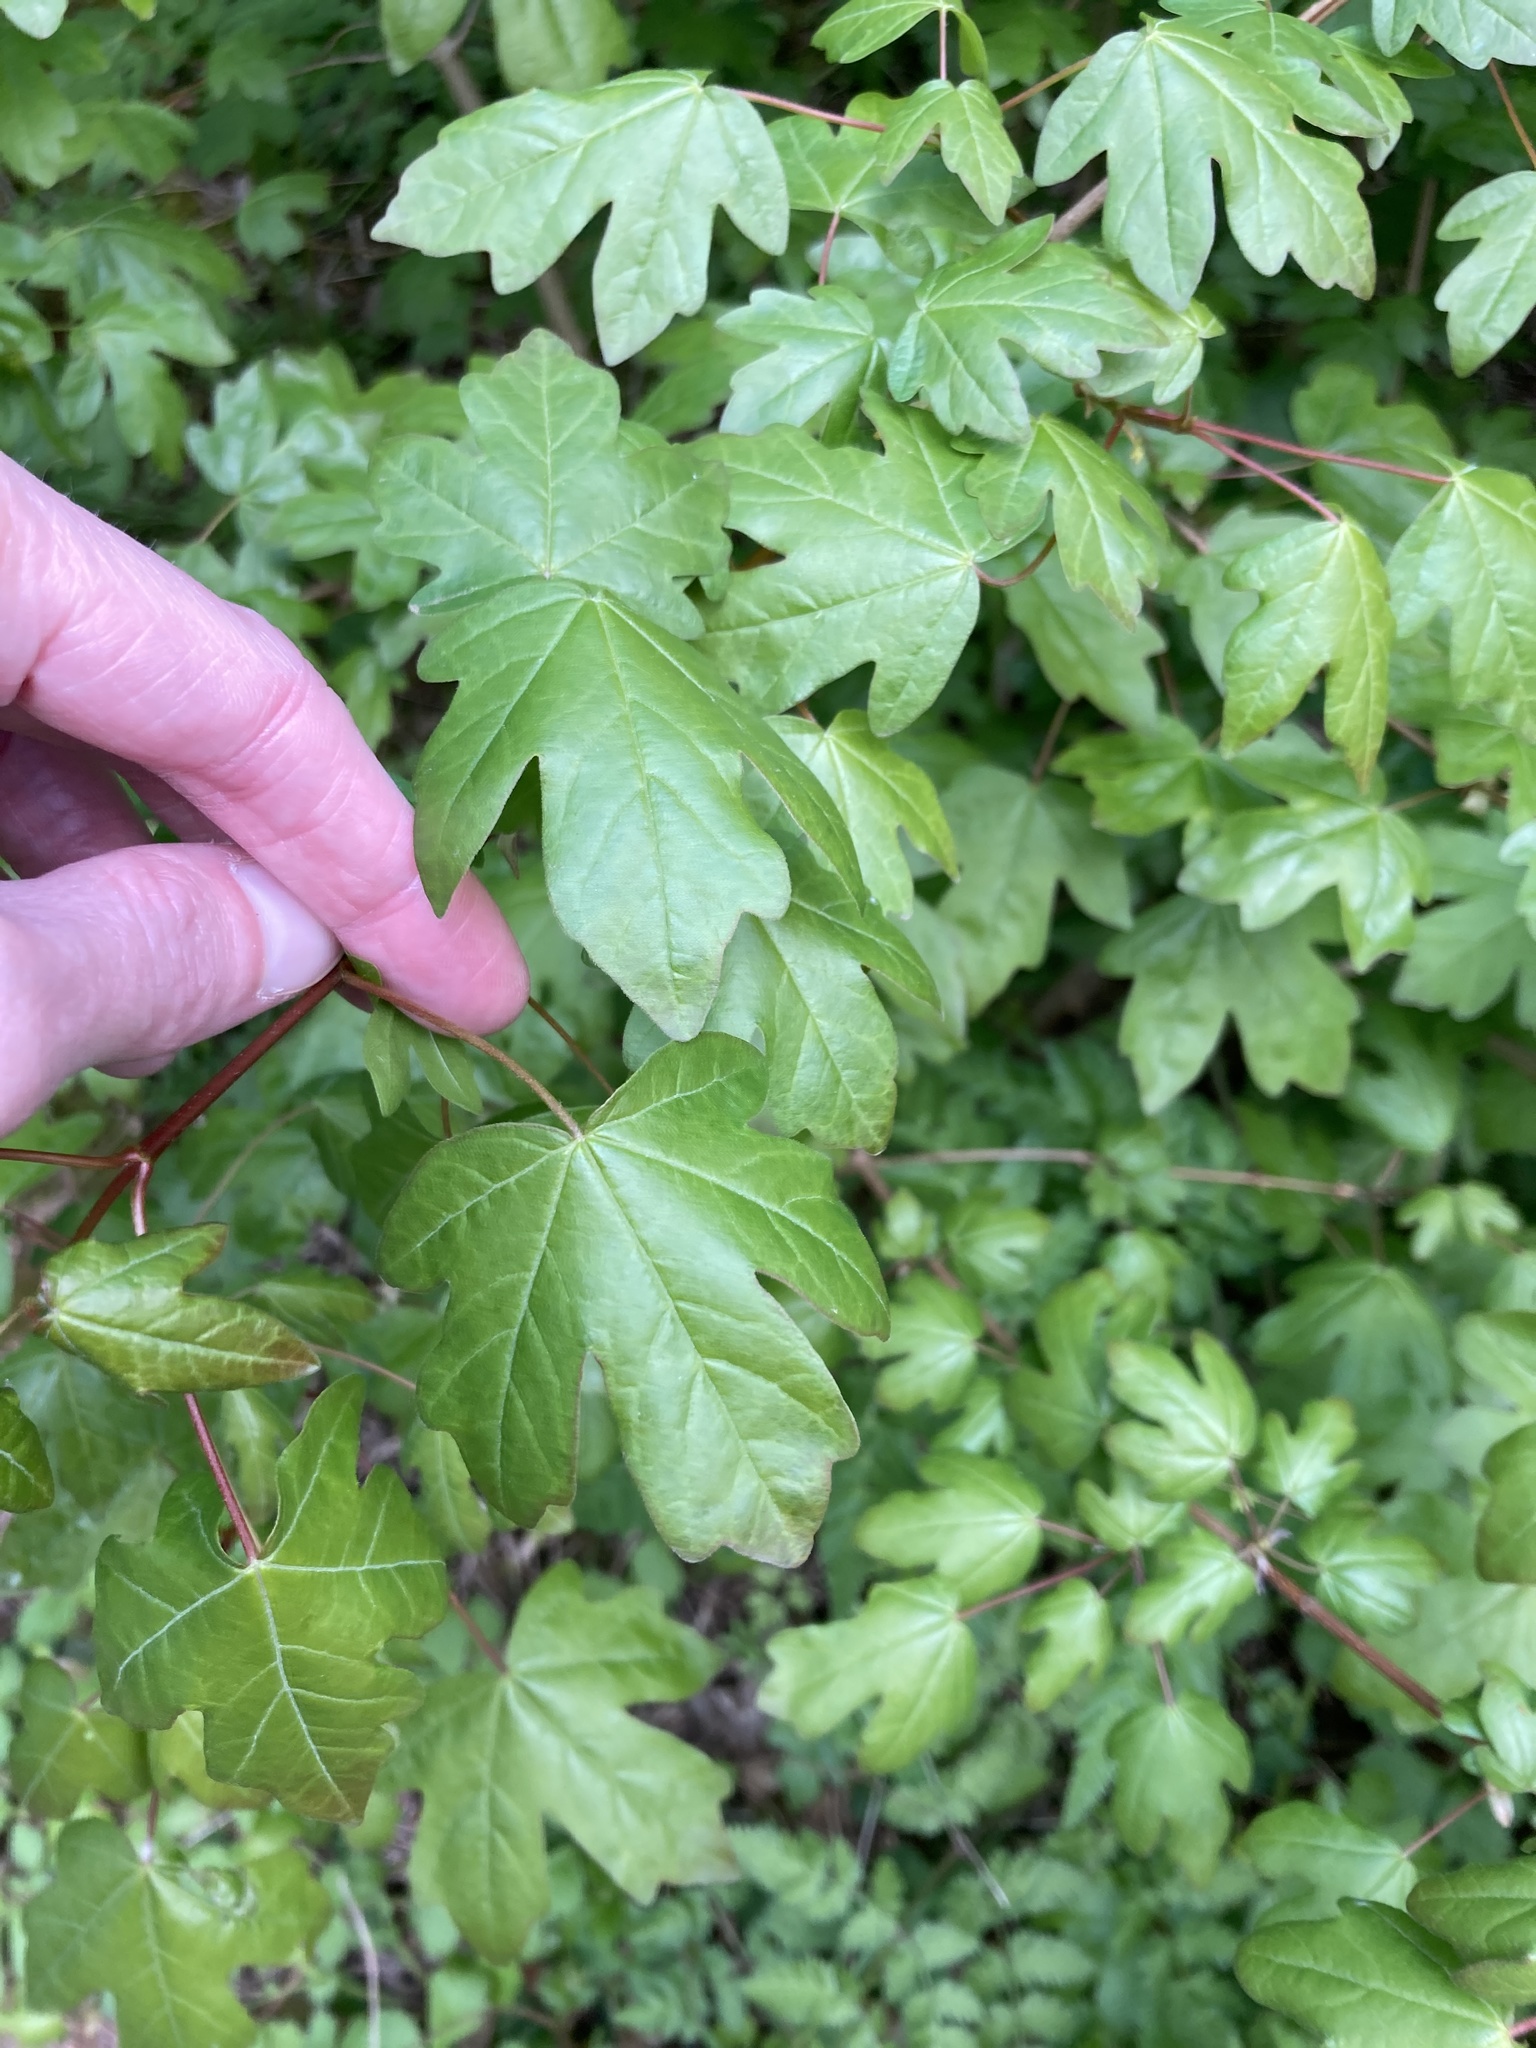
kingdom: Plantae
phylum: Tracheophyta
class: Magnoliopsida
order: Sapindales
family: Sapindaceae
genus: Acer
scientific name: Acer campestre
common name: Field maple
